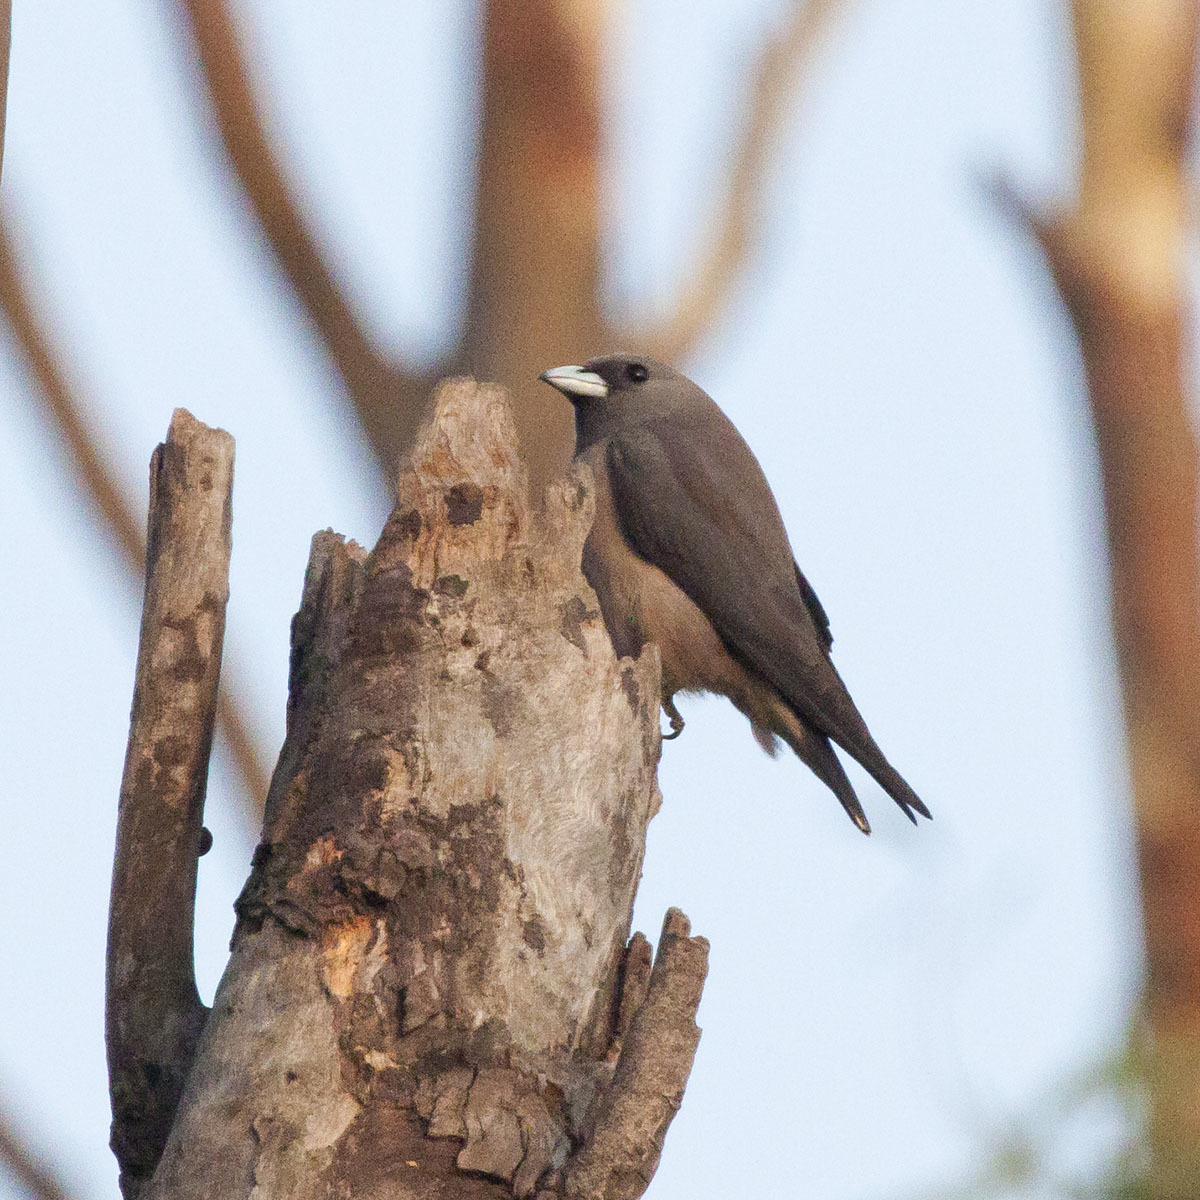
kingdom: Animalia
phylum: Chordata
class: Aves
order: Passeriformes
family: Artamidae
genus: Artamus
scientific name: Artamus fuscus
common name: Ashy woodswallow
